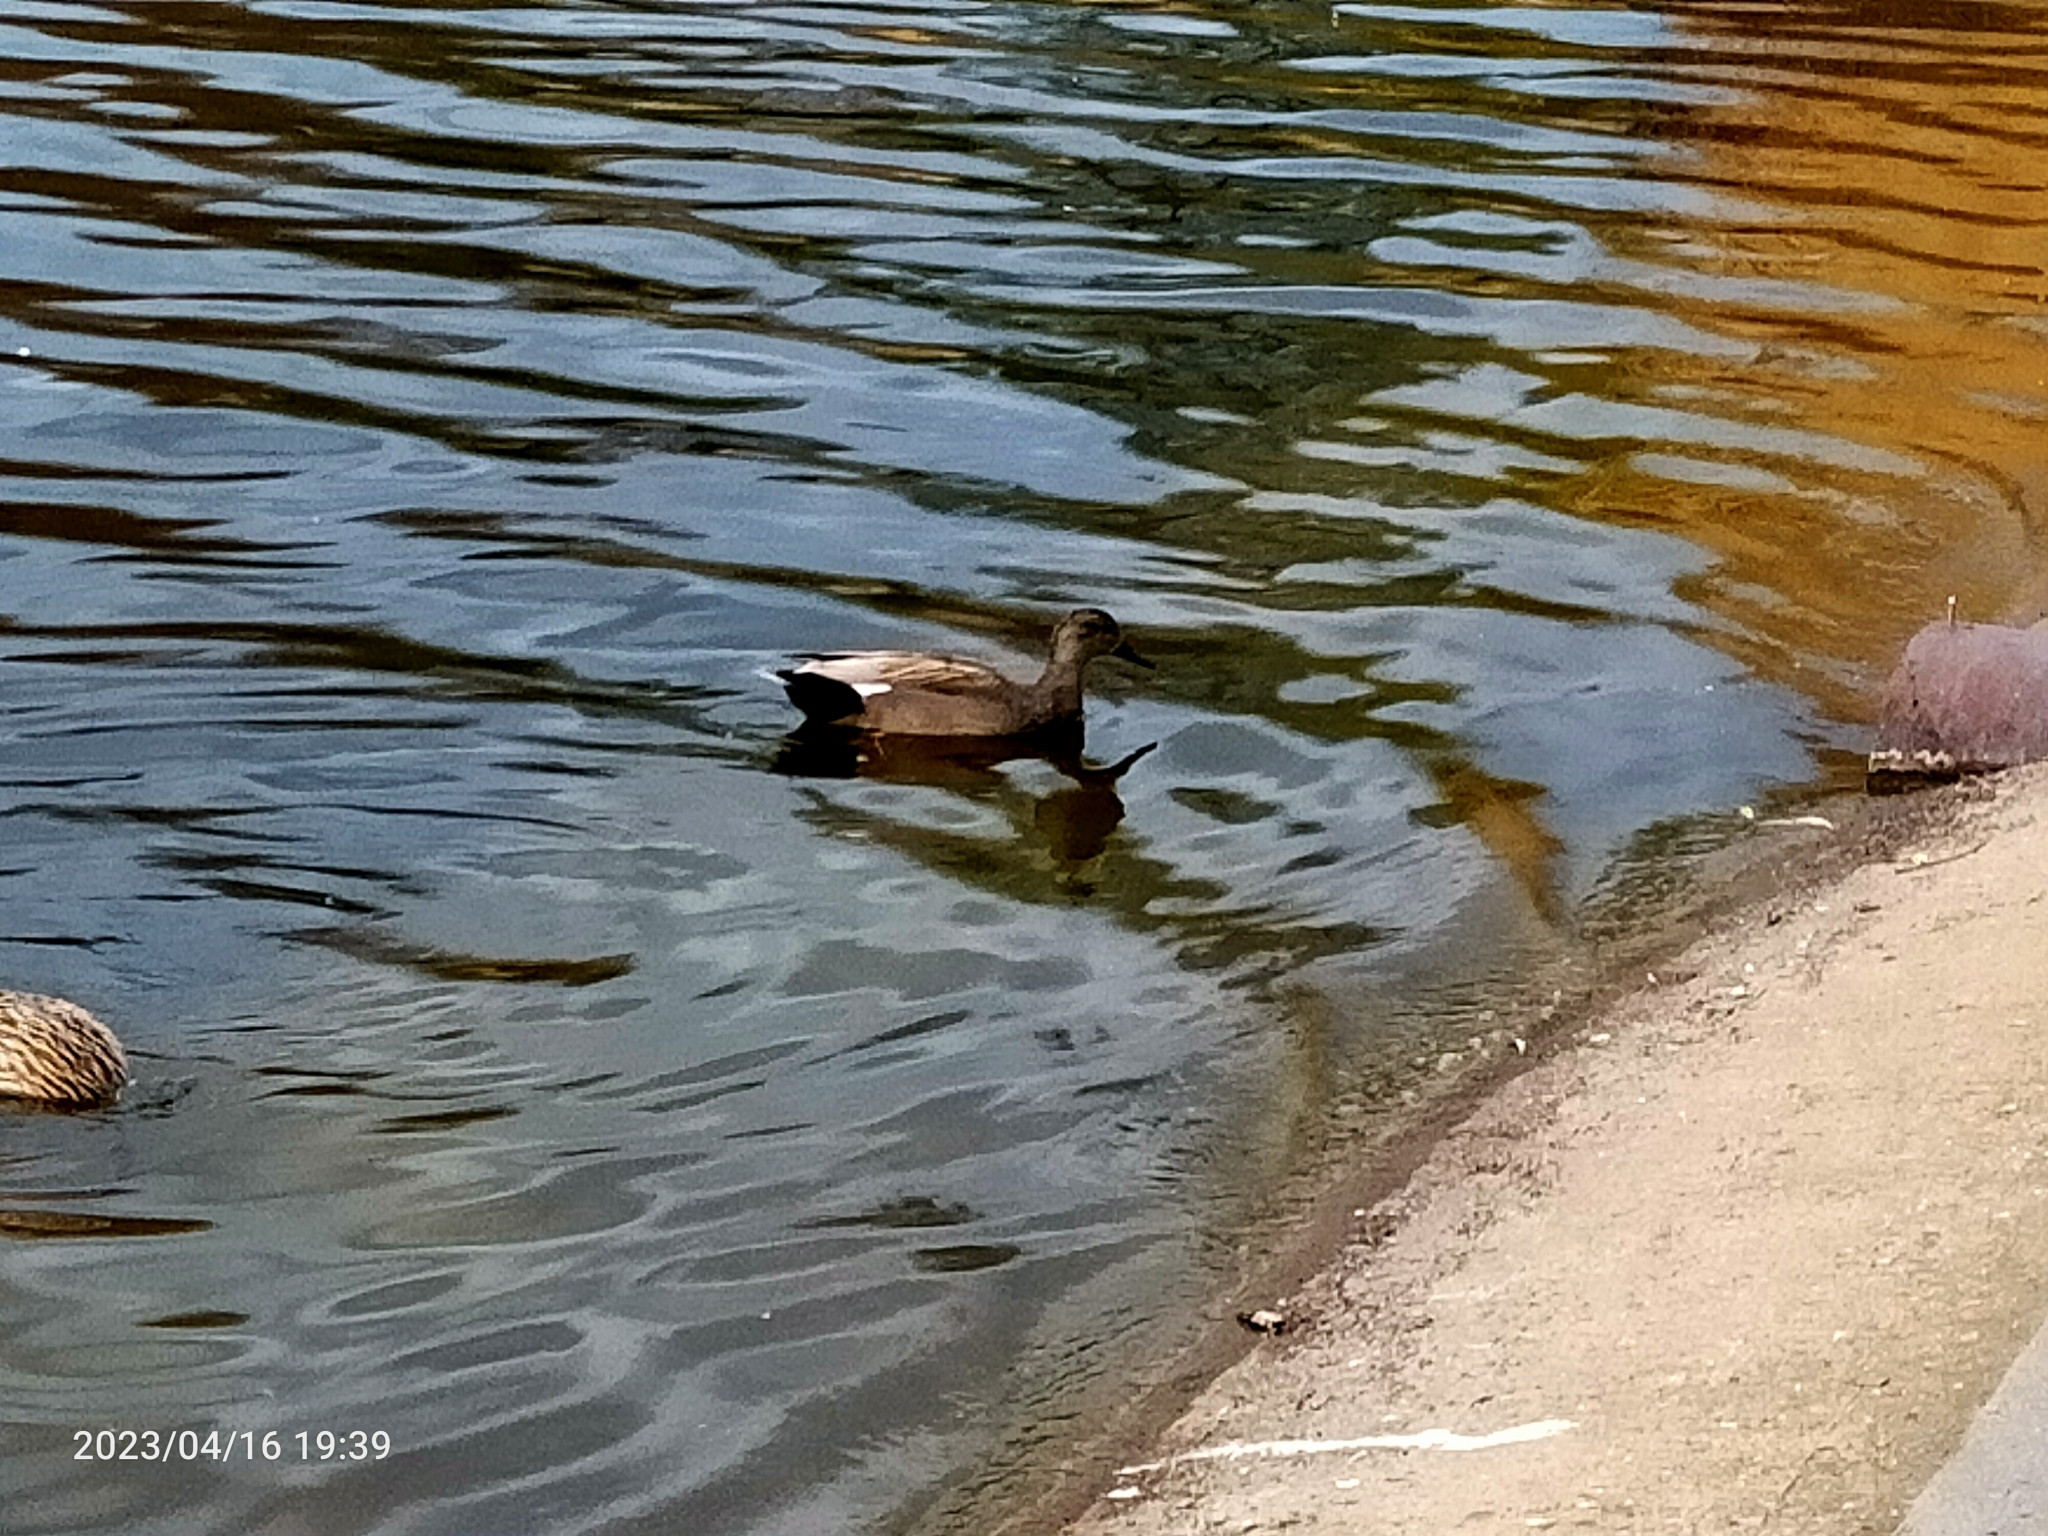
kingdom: Animalia
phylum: Chordata
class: Aves
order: Anseriformes
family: Anatidae
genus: Mareca
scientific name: Mareca strepera
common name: Gadwall
